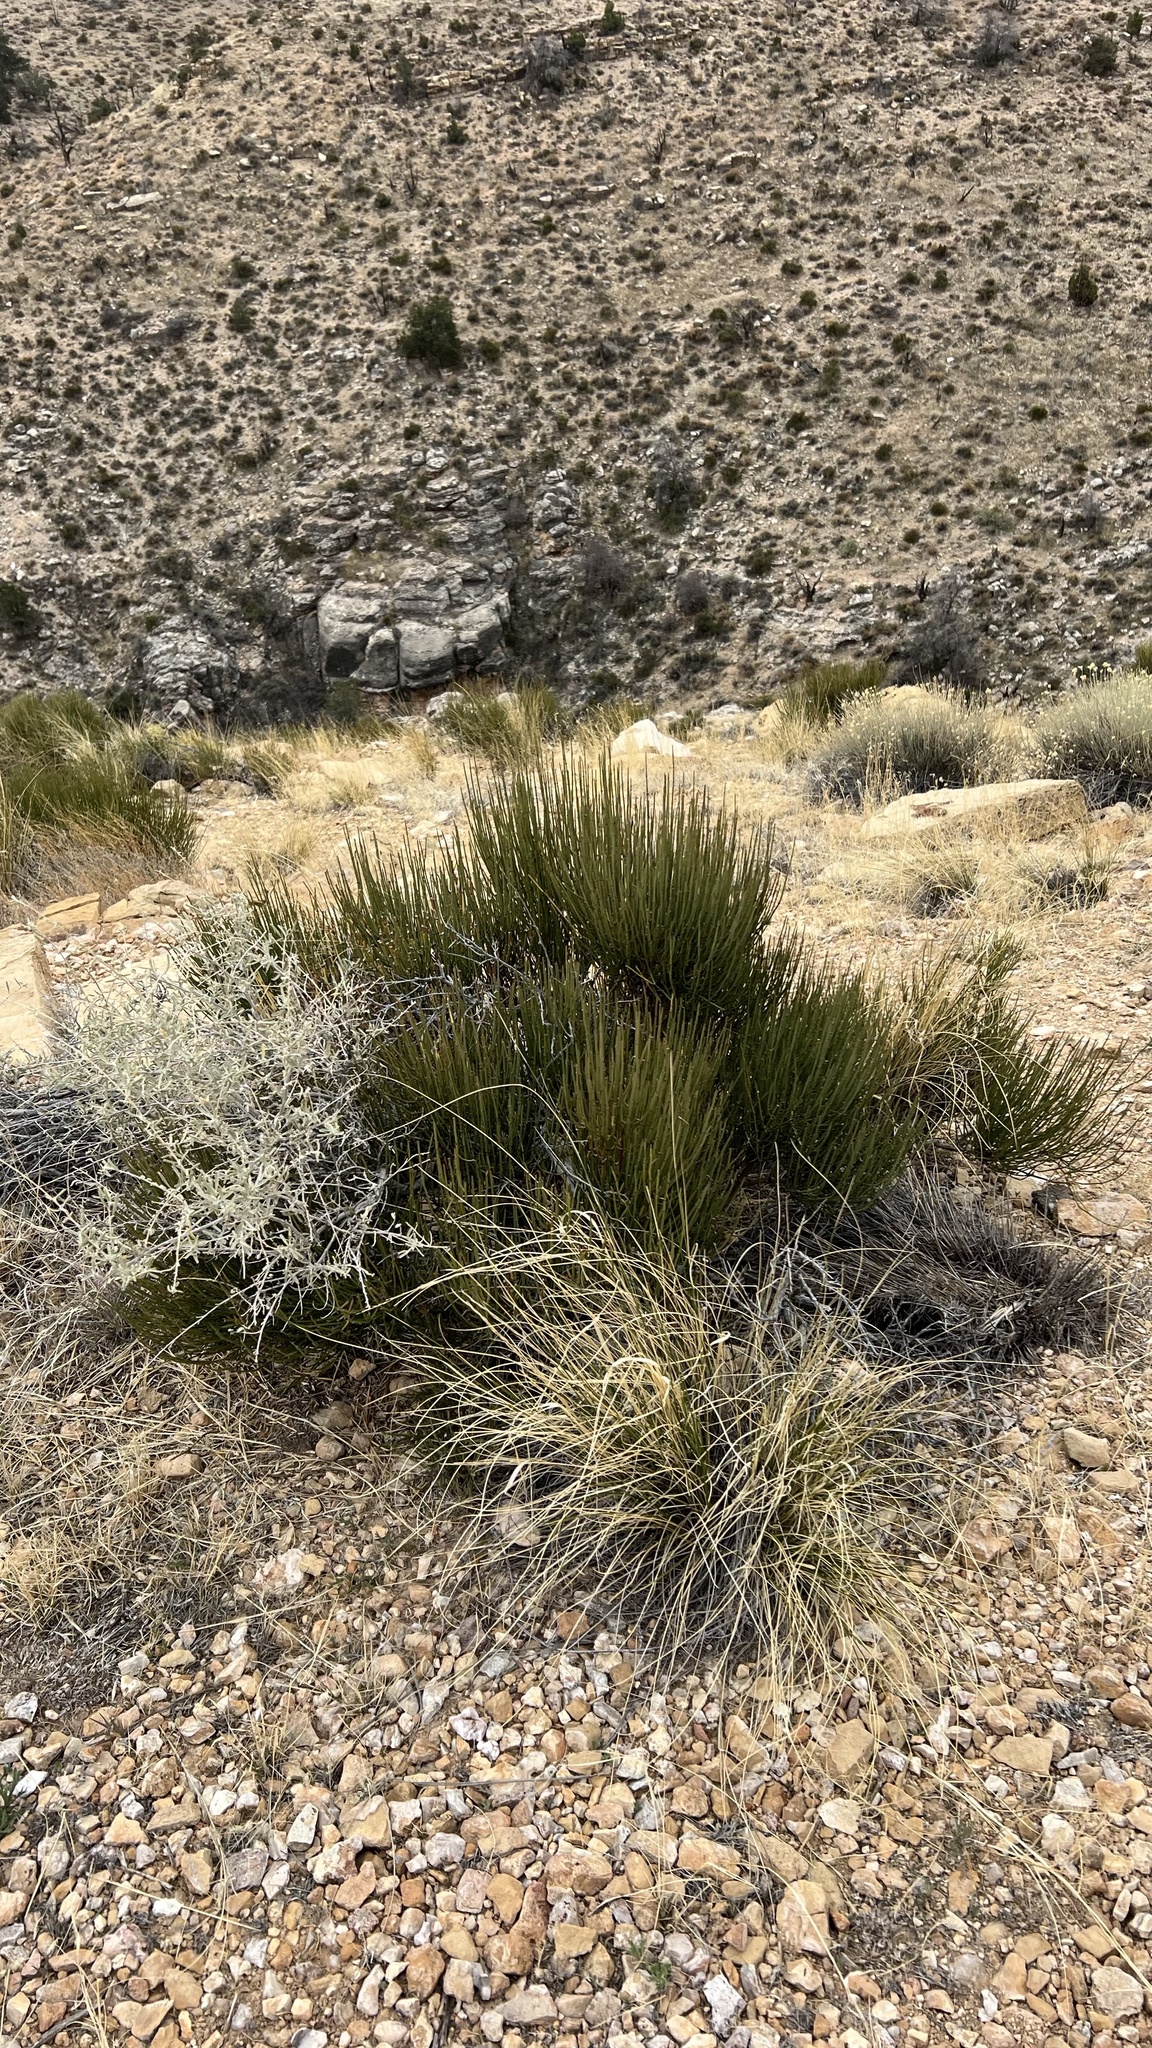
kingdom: Plantae
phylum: Tracheophyta
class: Gnetopsida
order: Ephedrales
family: Ephedraceae
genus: Ephedra
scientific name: Ephedra viridis
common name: Green ephedra
